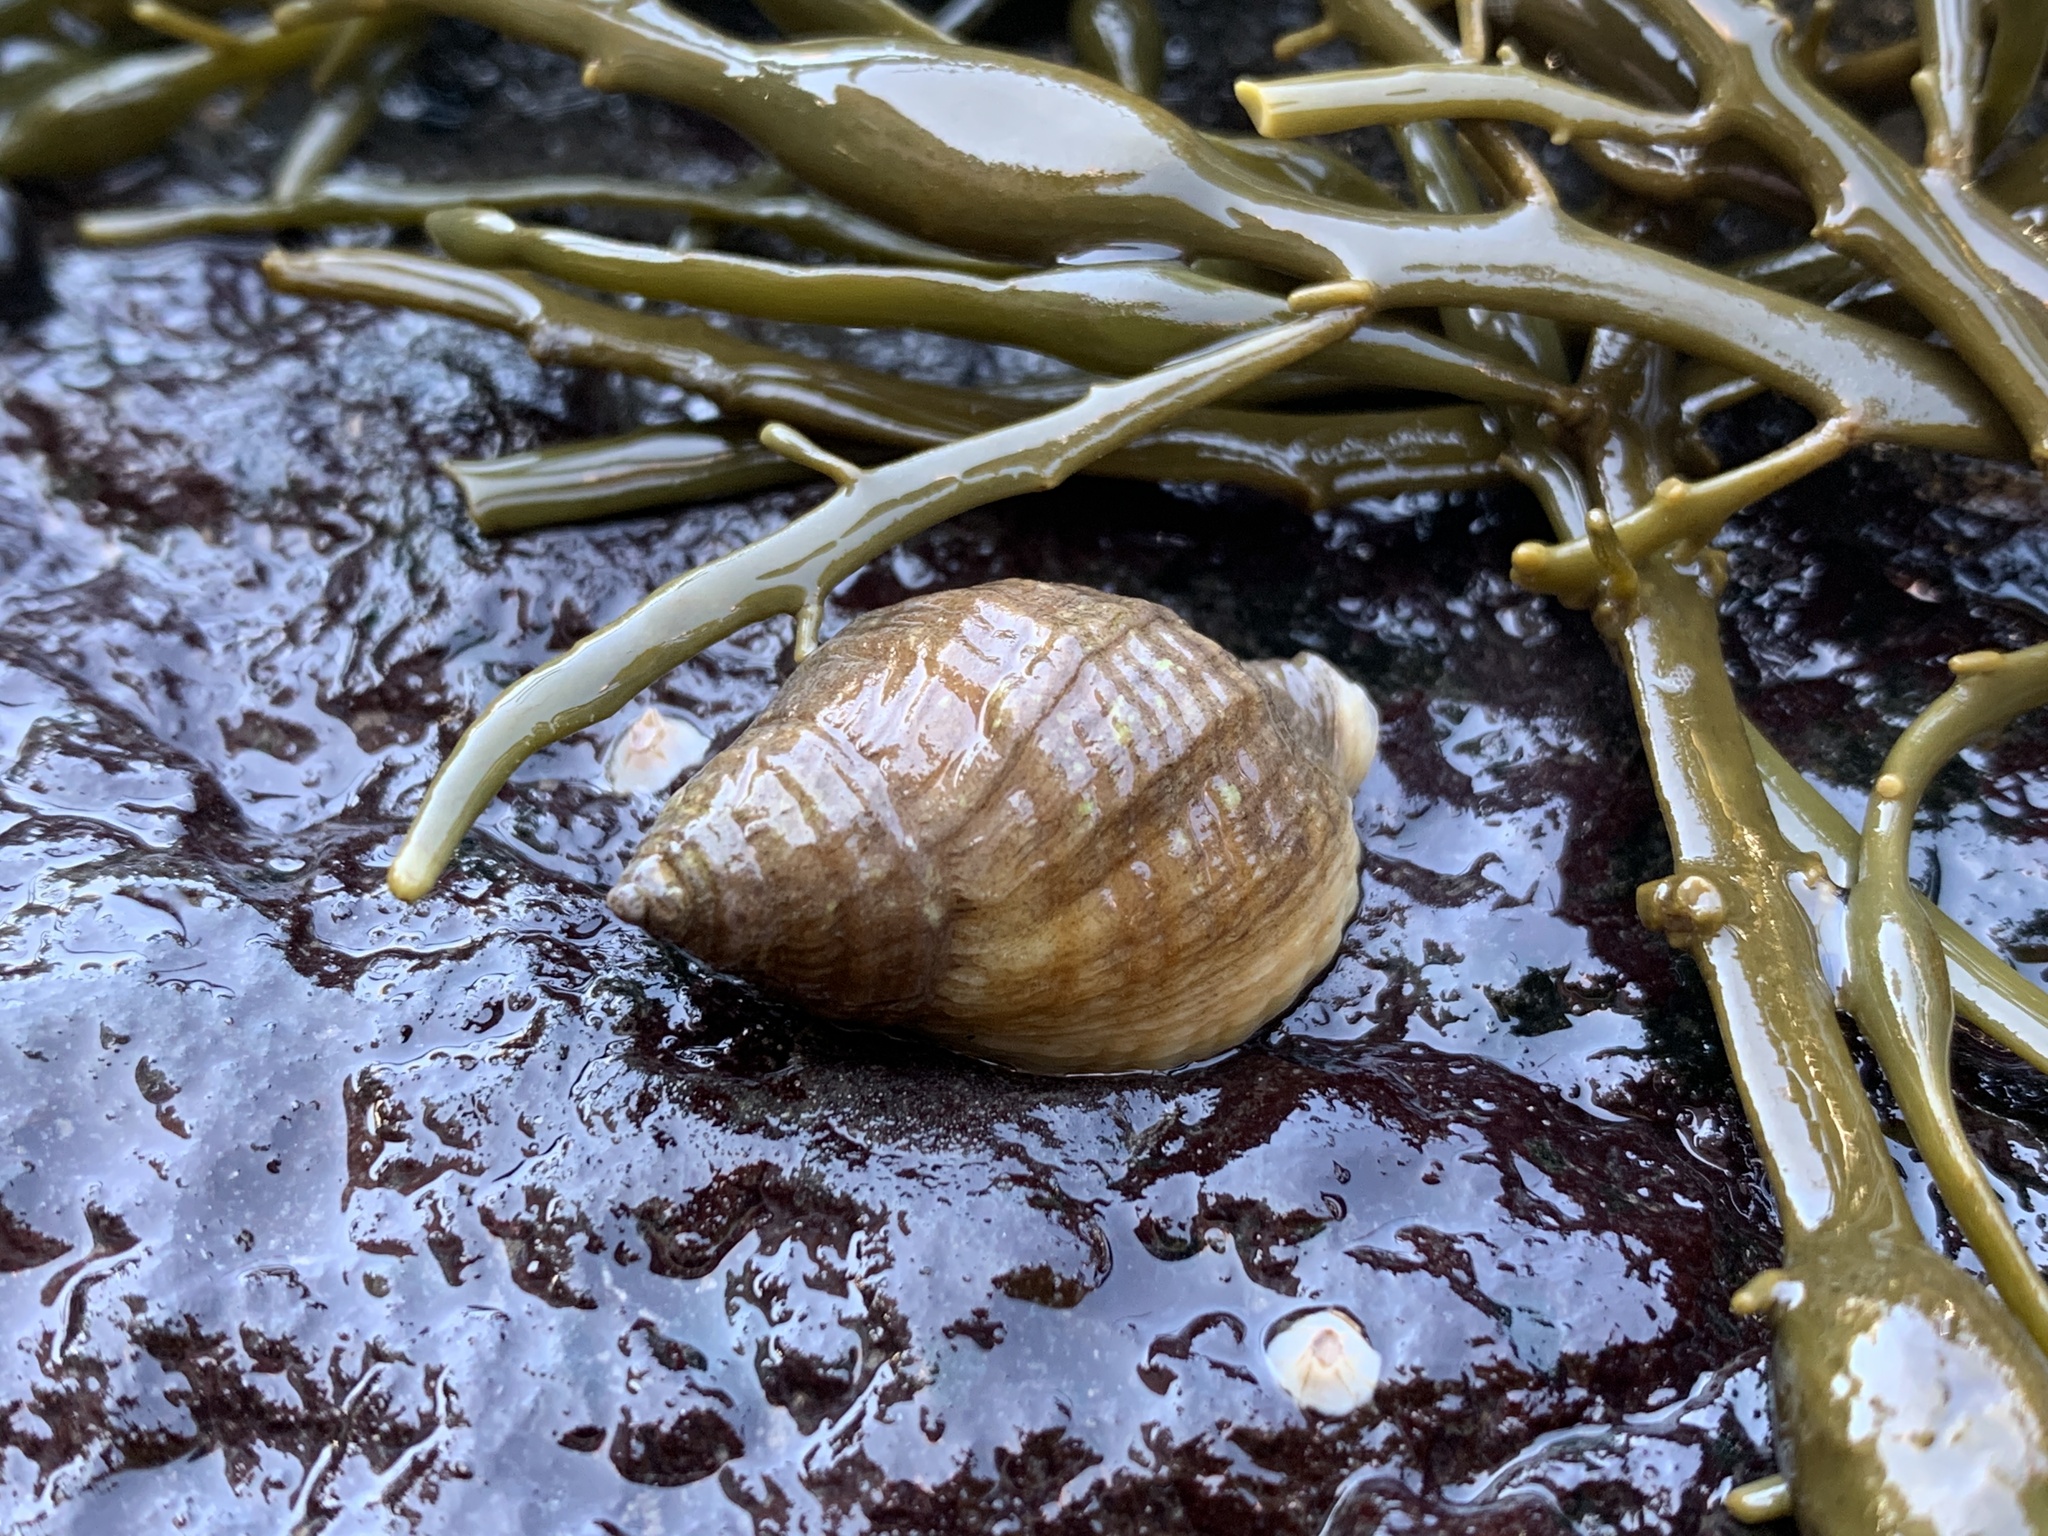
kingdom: Animalia
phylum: Mollusca
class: Gastropoda
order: Neogastropoda
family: Muricidae
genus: Nucella
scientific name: Nucella lapillus
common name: Dog whelk
